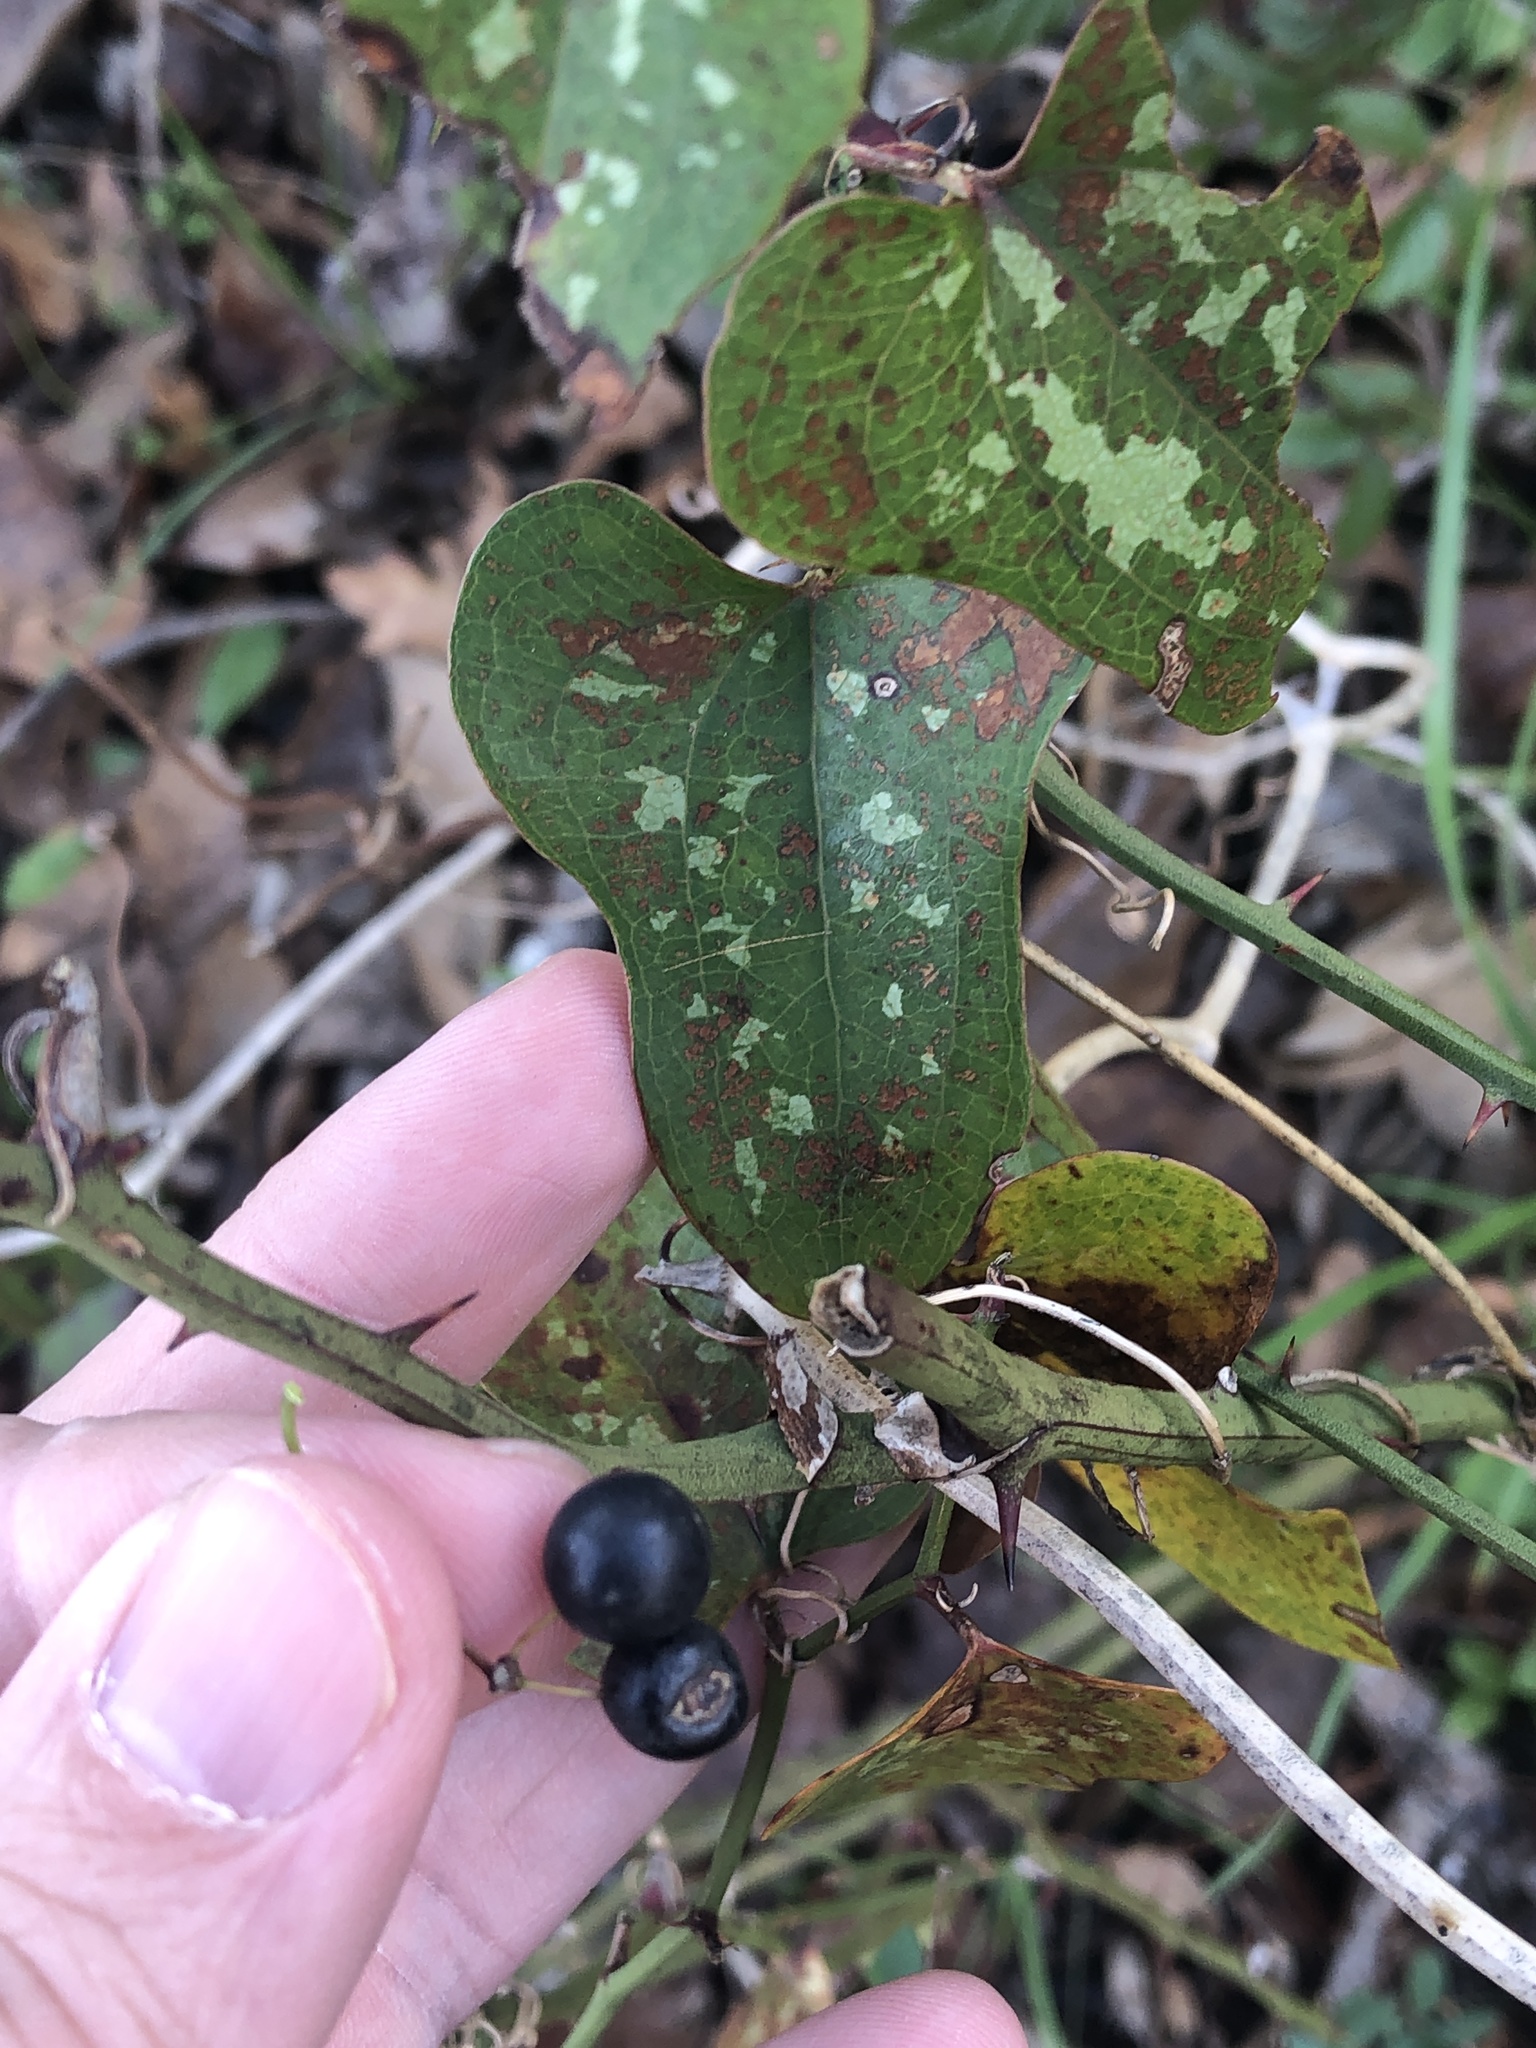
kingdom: Plantae
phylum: Tracheophyta
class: Liliopsida
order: Liliales
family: Smilacaceae
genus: Smilax
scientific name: Smilax bona-nox
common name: Catbrier
